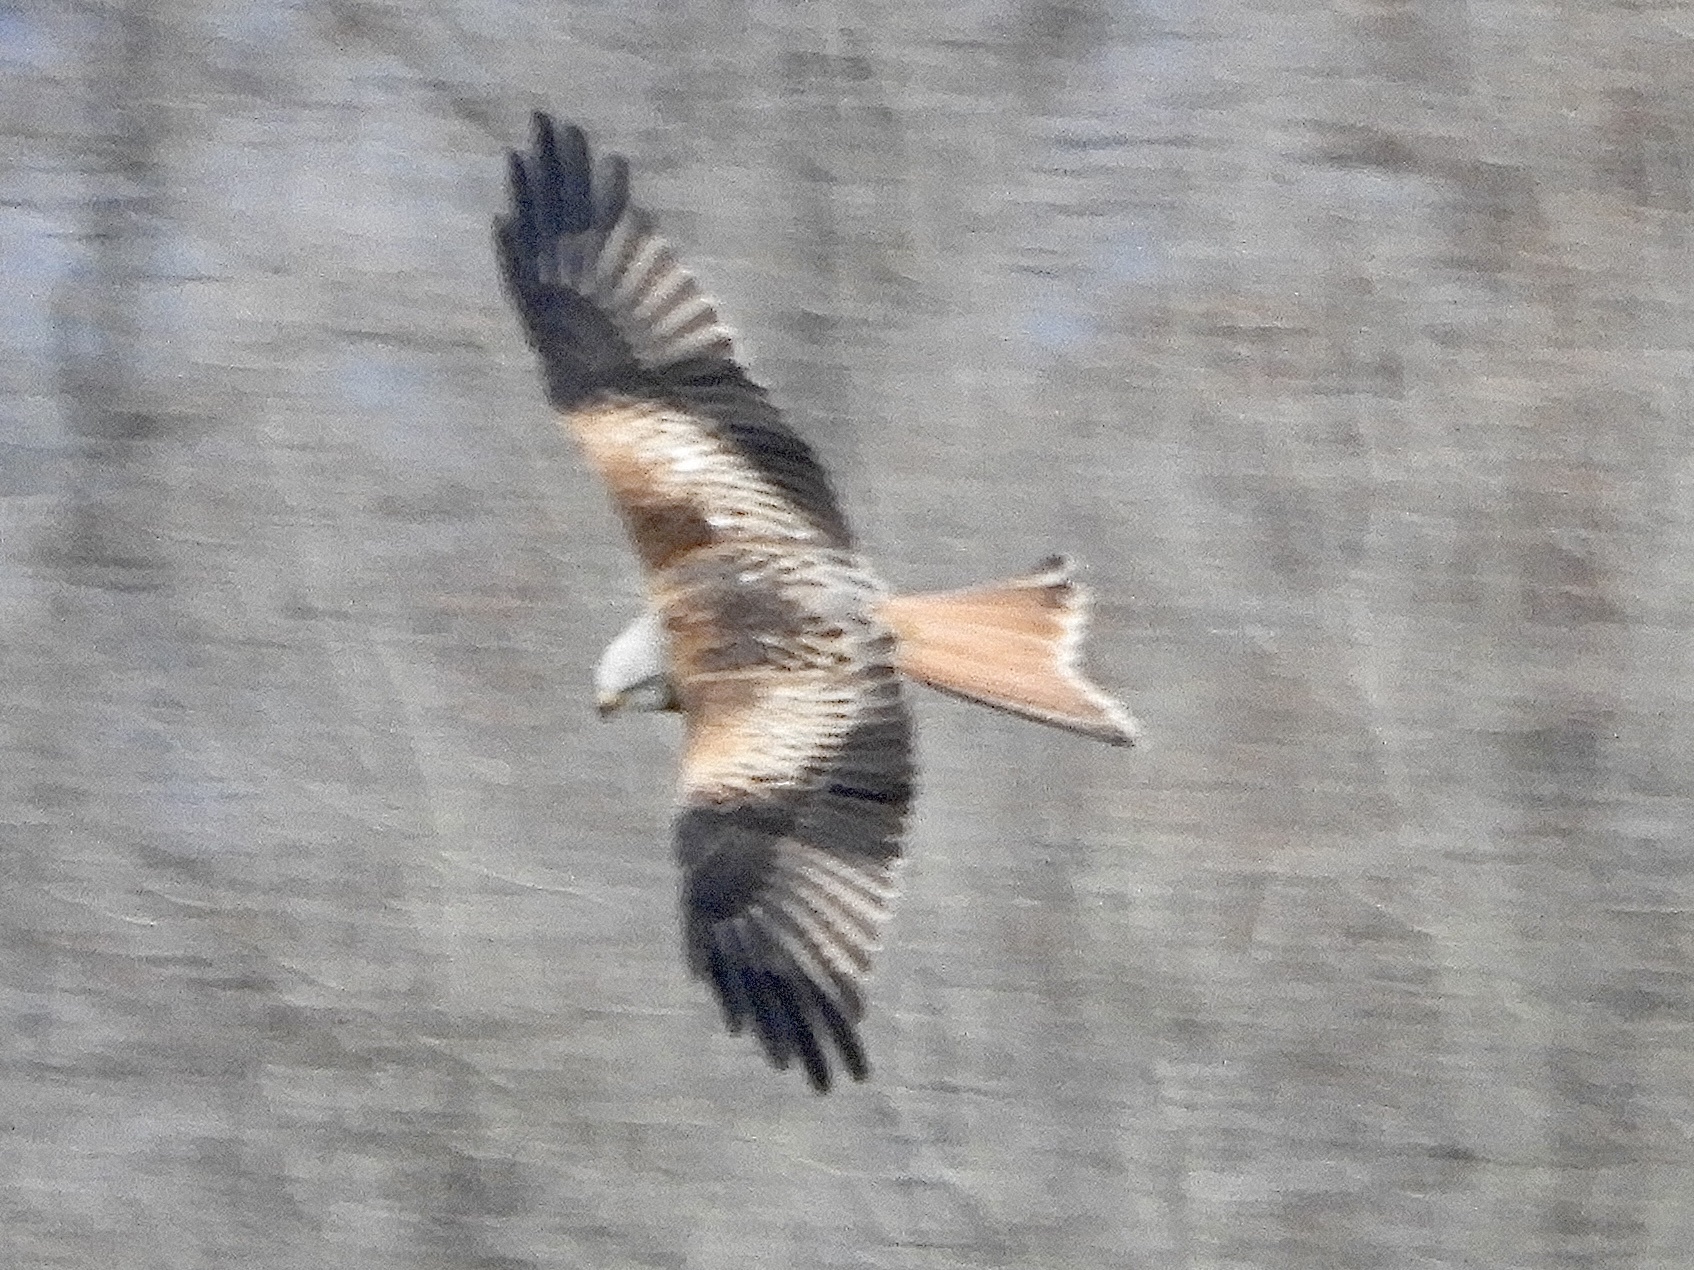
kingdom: Animalia
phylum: Chordata
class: Aves
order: Accipitriformes
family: Accipitridae
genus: Milvus
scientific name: Milvus milvus
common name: Red kite
